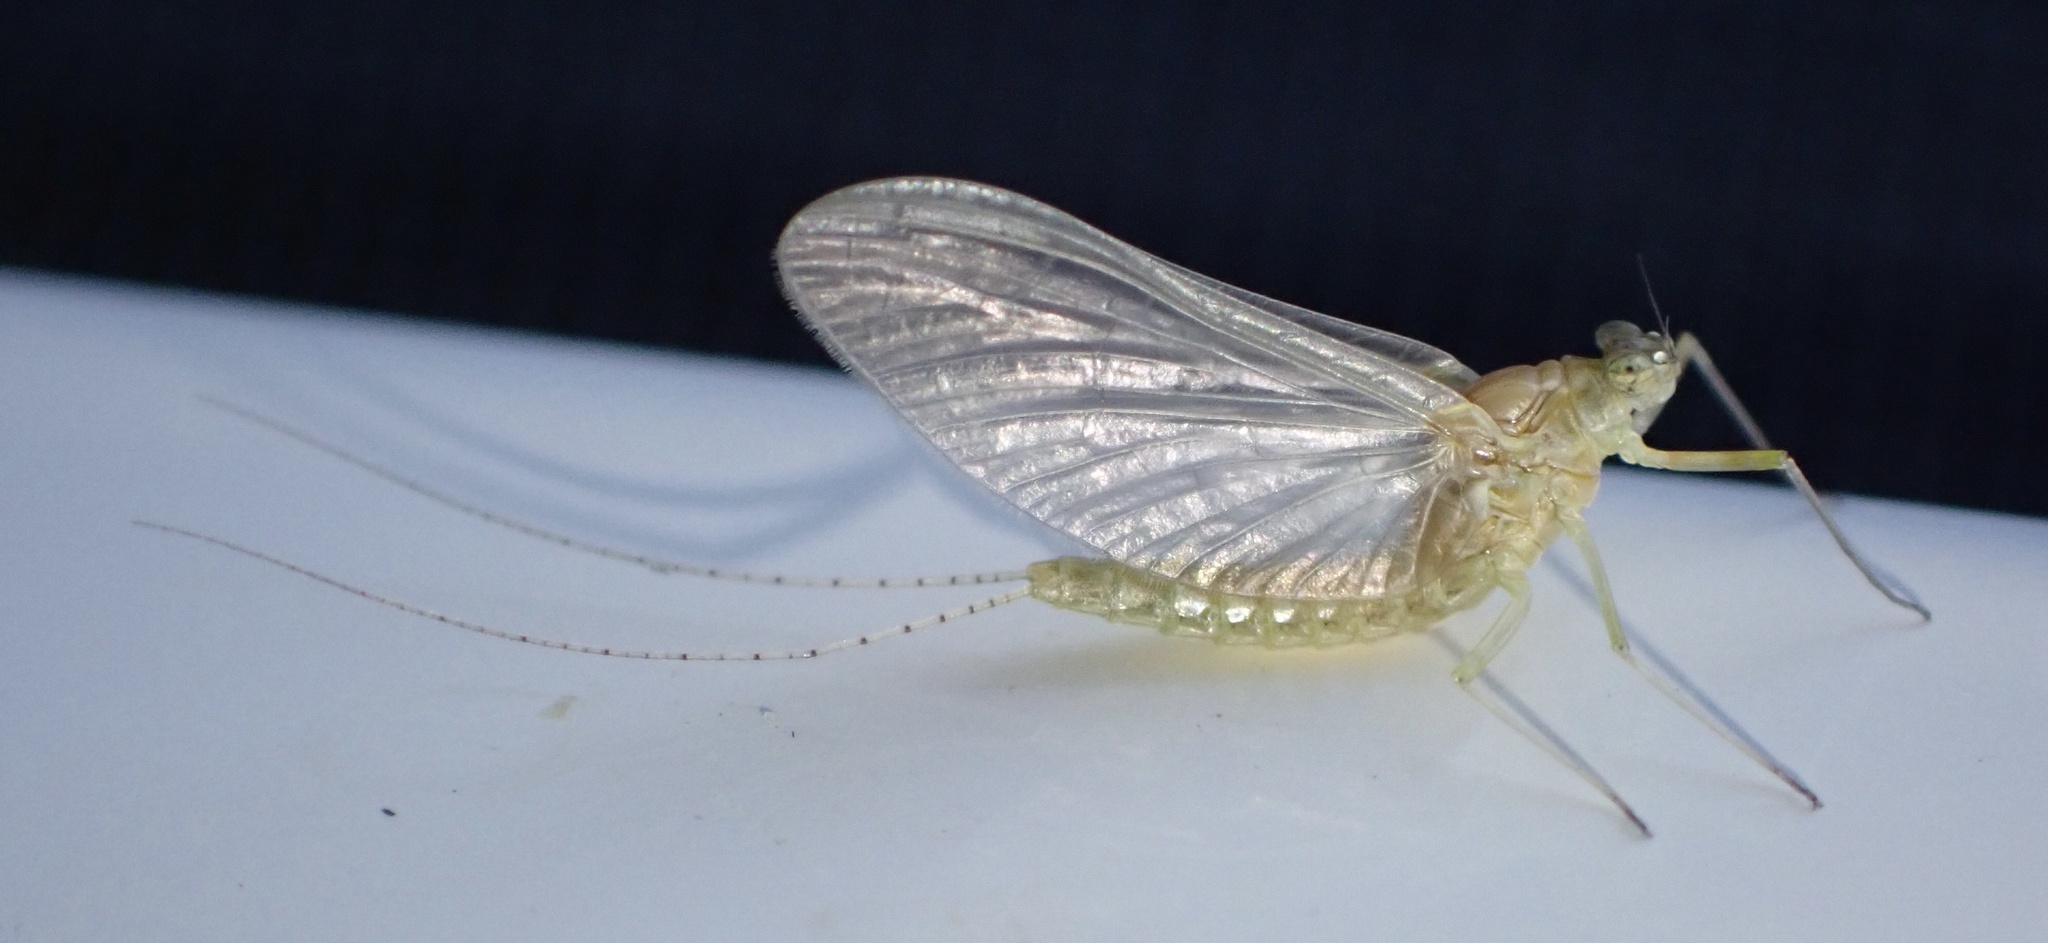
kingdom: Animalia
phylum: Arthropoda
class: Insecta
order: Ephemeroptera
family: Baetidae
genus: Cloeon
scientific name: Cloeon dipterum
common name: Pond olive
